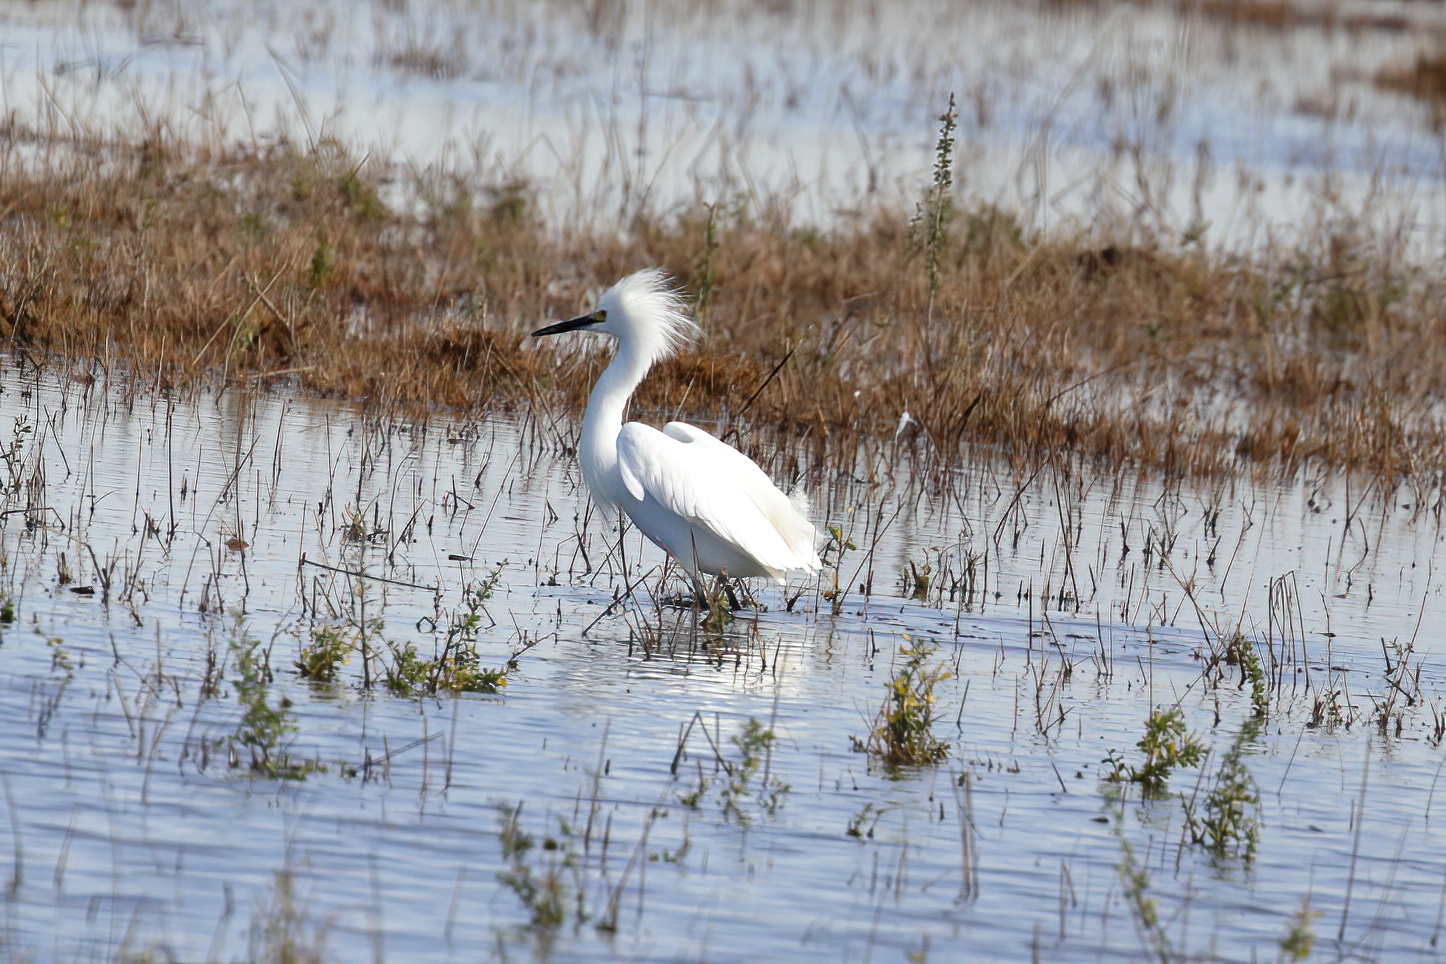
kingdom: Animalia
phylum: Chordata
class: Aves
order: Pelecaniformes
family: Ardeidae
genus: Egretta
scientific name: Egretta thula
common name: Snowy egret
